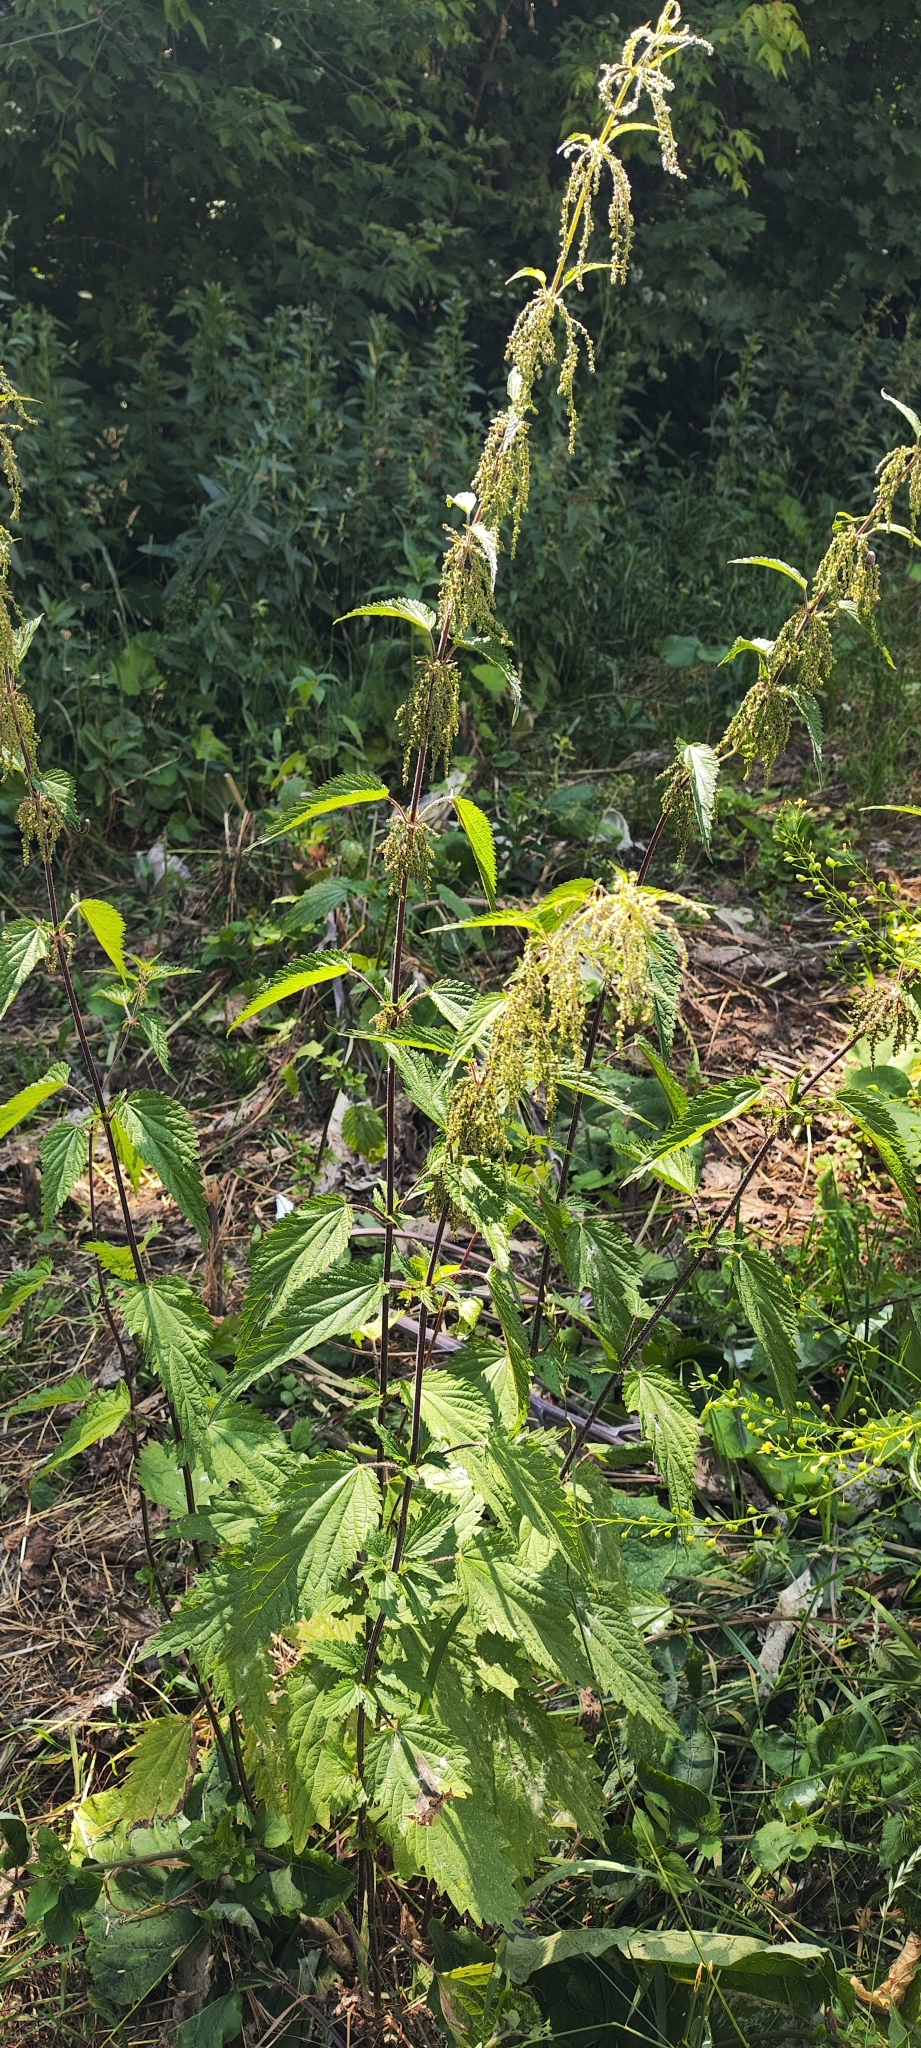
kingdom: Plantae
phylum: Tracheophyta
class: Magnoliopsida
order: Rosales
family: Urticaceae
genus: Urtica
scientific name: Urtica dioica
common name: Common nettle
